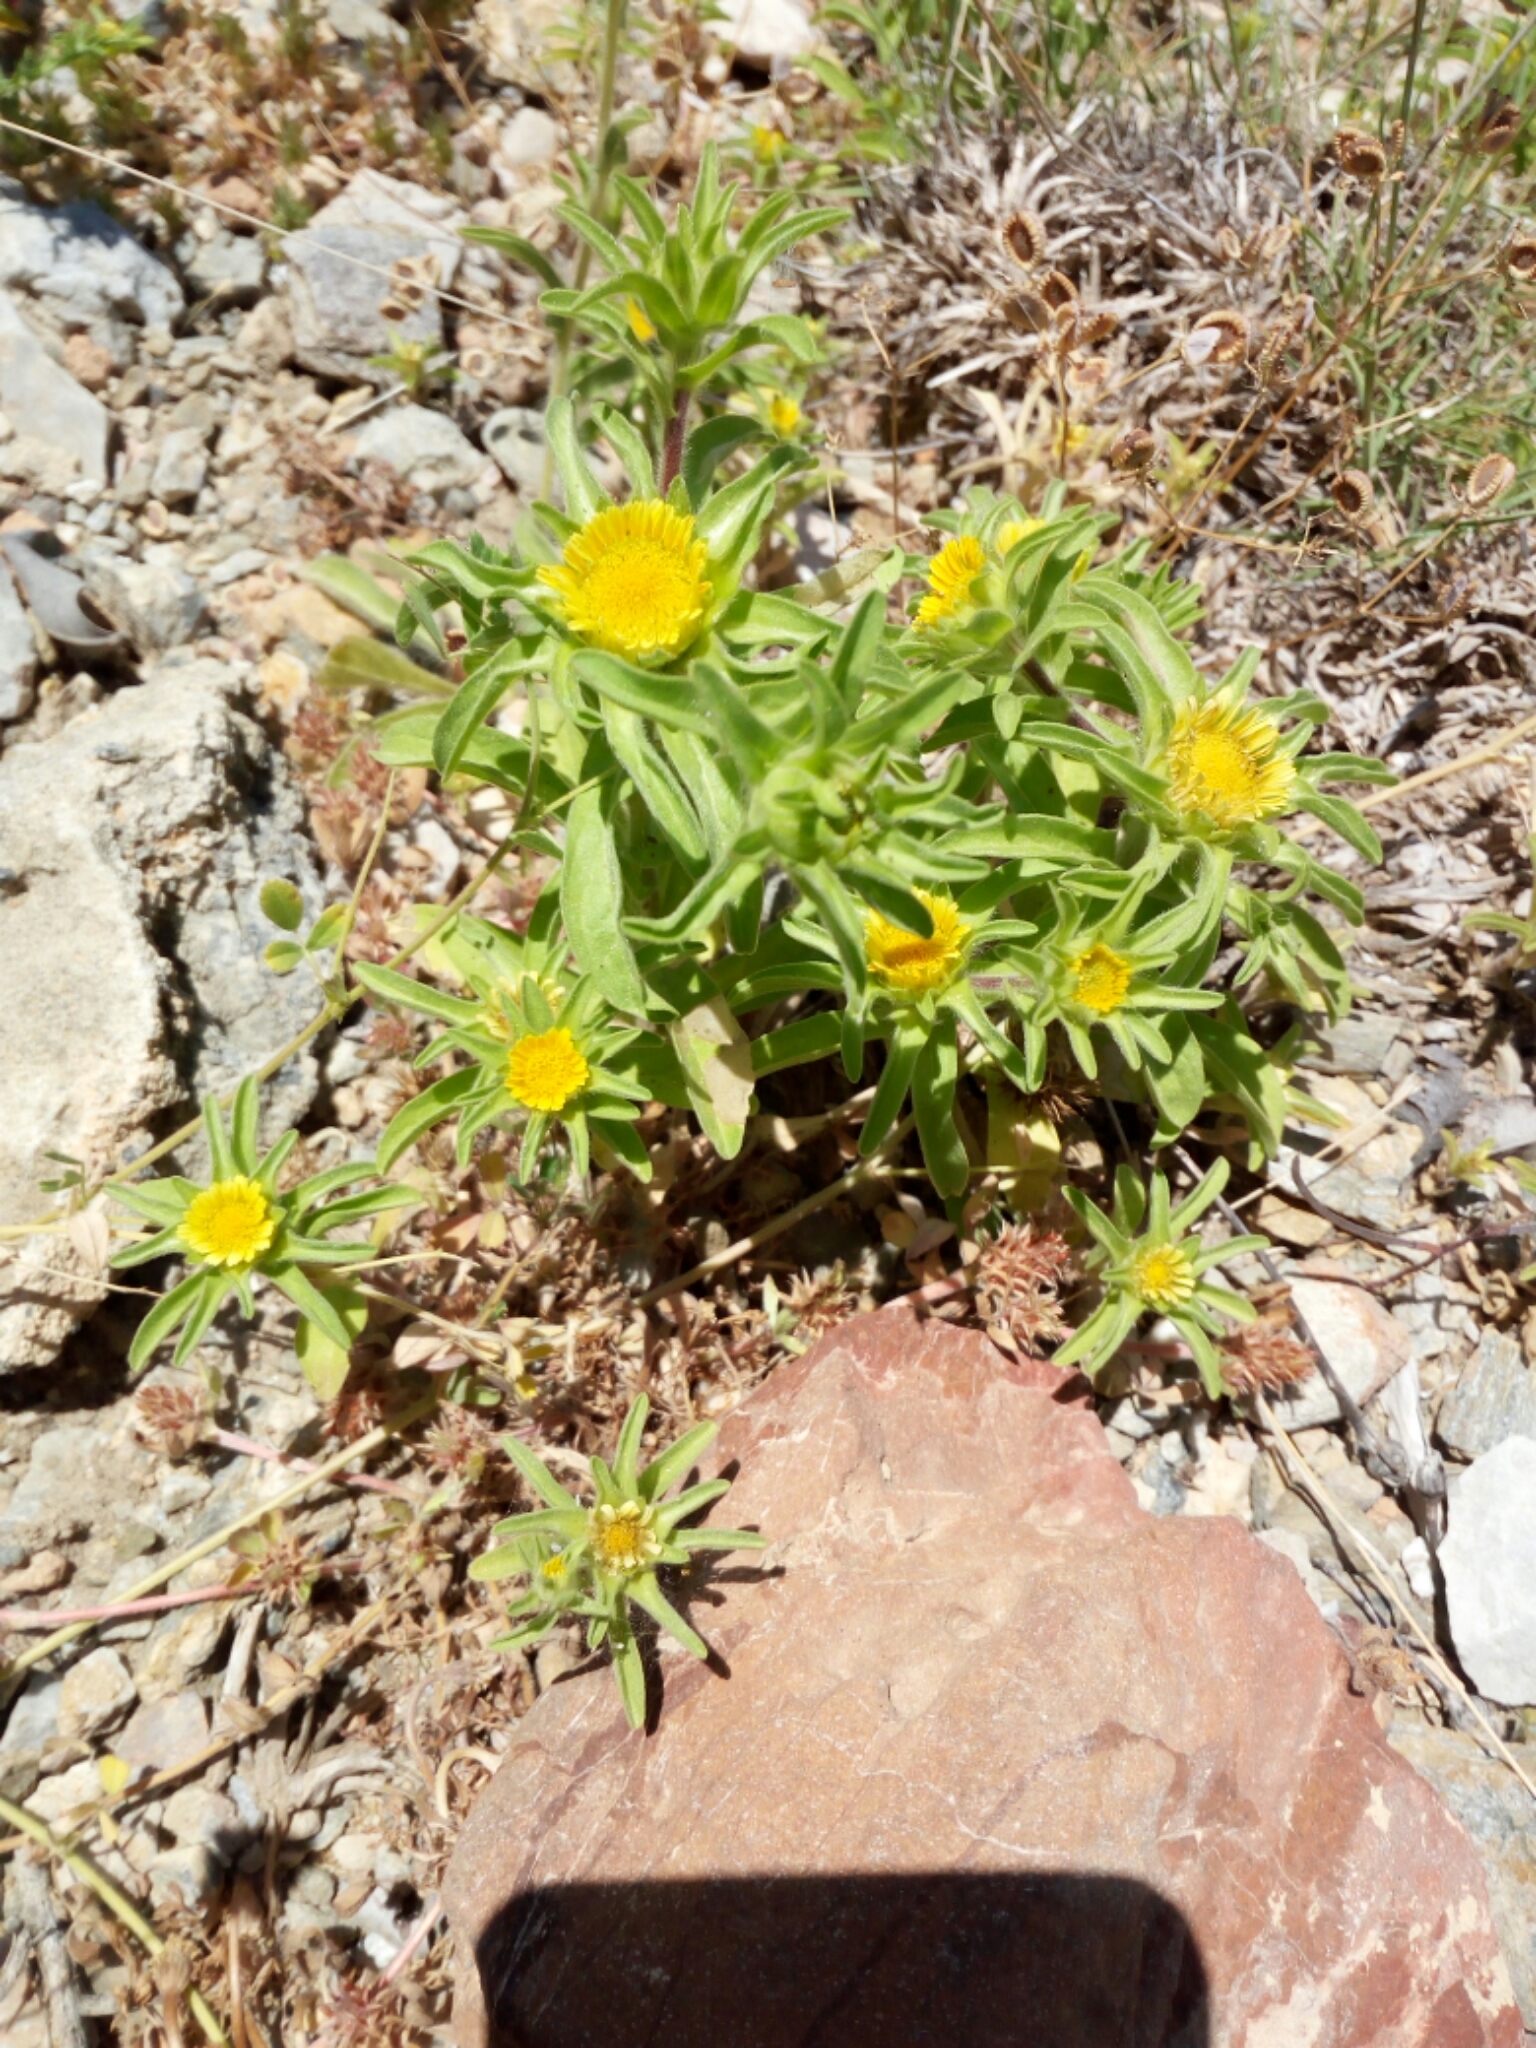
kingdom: Plantae
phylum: Tracheophyta
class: Magnoliopsida
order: Asterales
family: Asteraceae
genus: Asteriscus
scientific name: Asteriscus aquaticus
